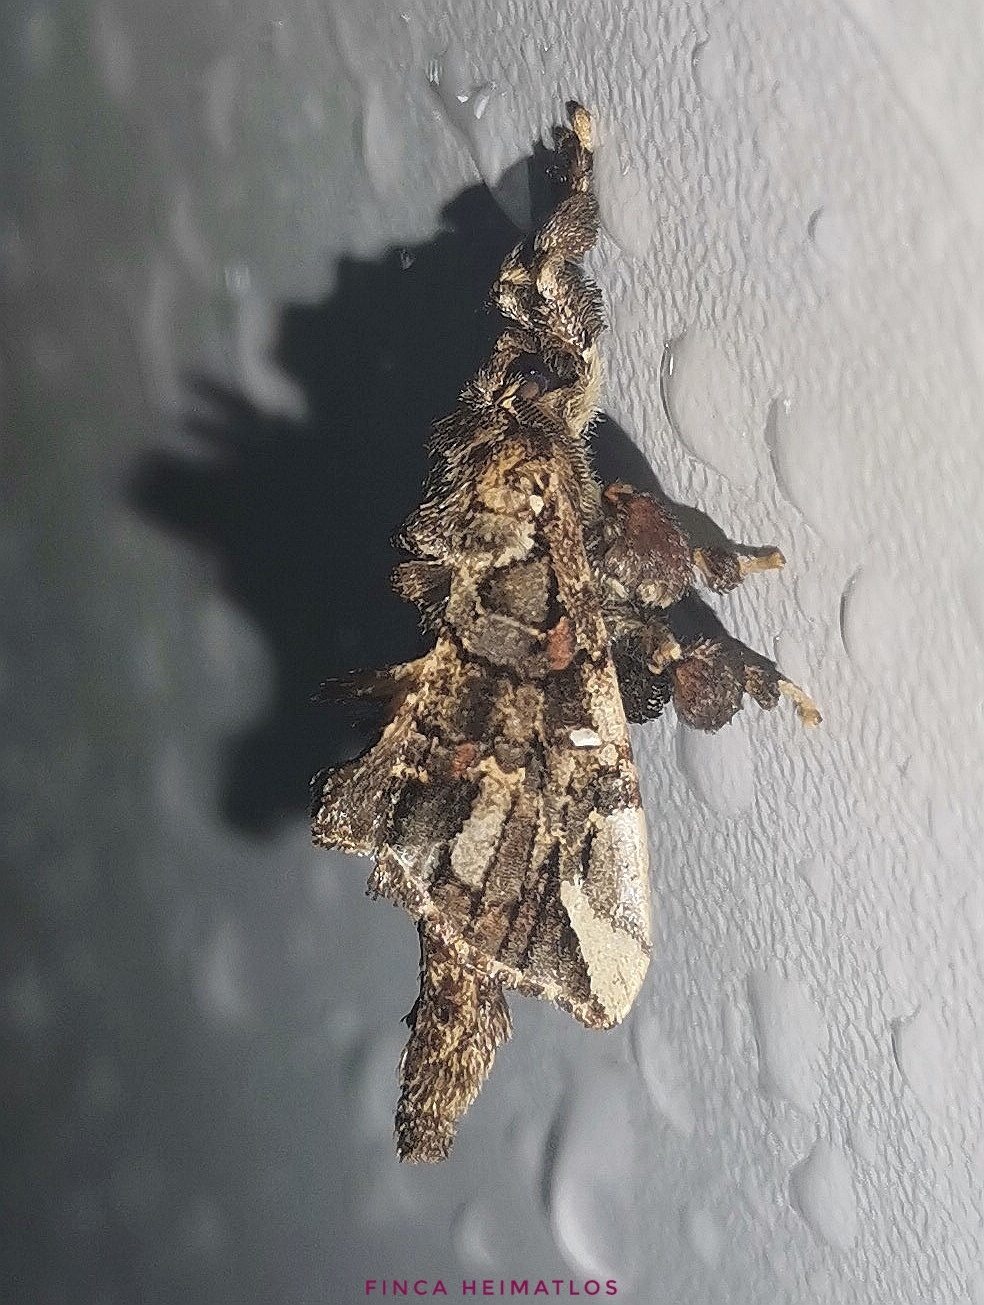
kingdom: Animalia
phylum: Arthropoda
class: Insecta
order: Lepidoptera
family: Bombycidae
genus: Tamphana
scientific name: Tamphana marmorea
